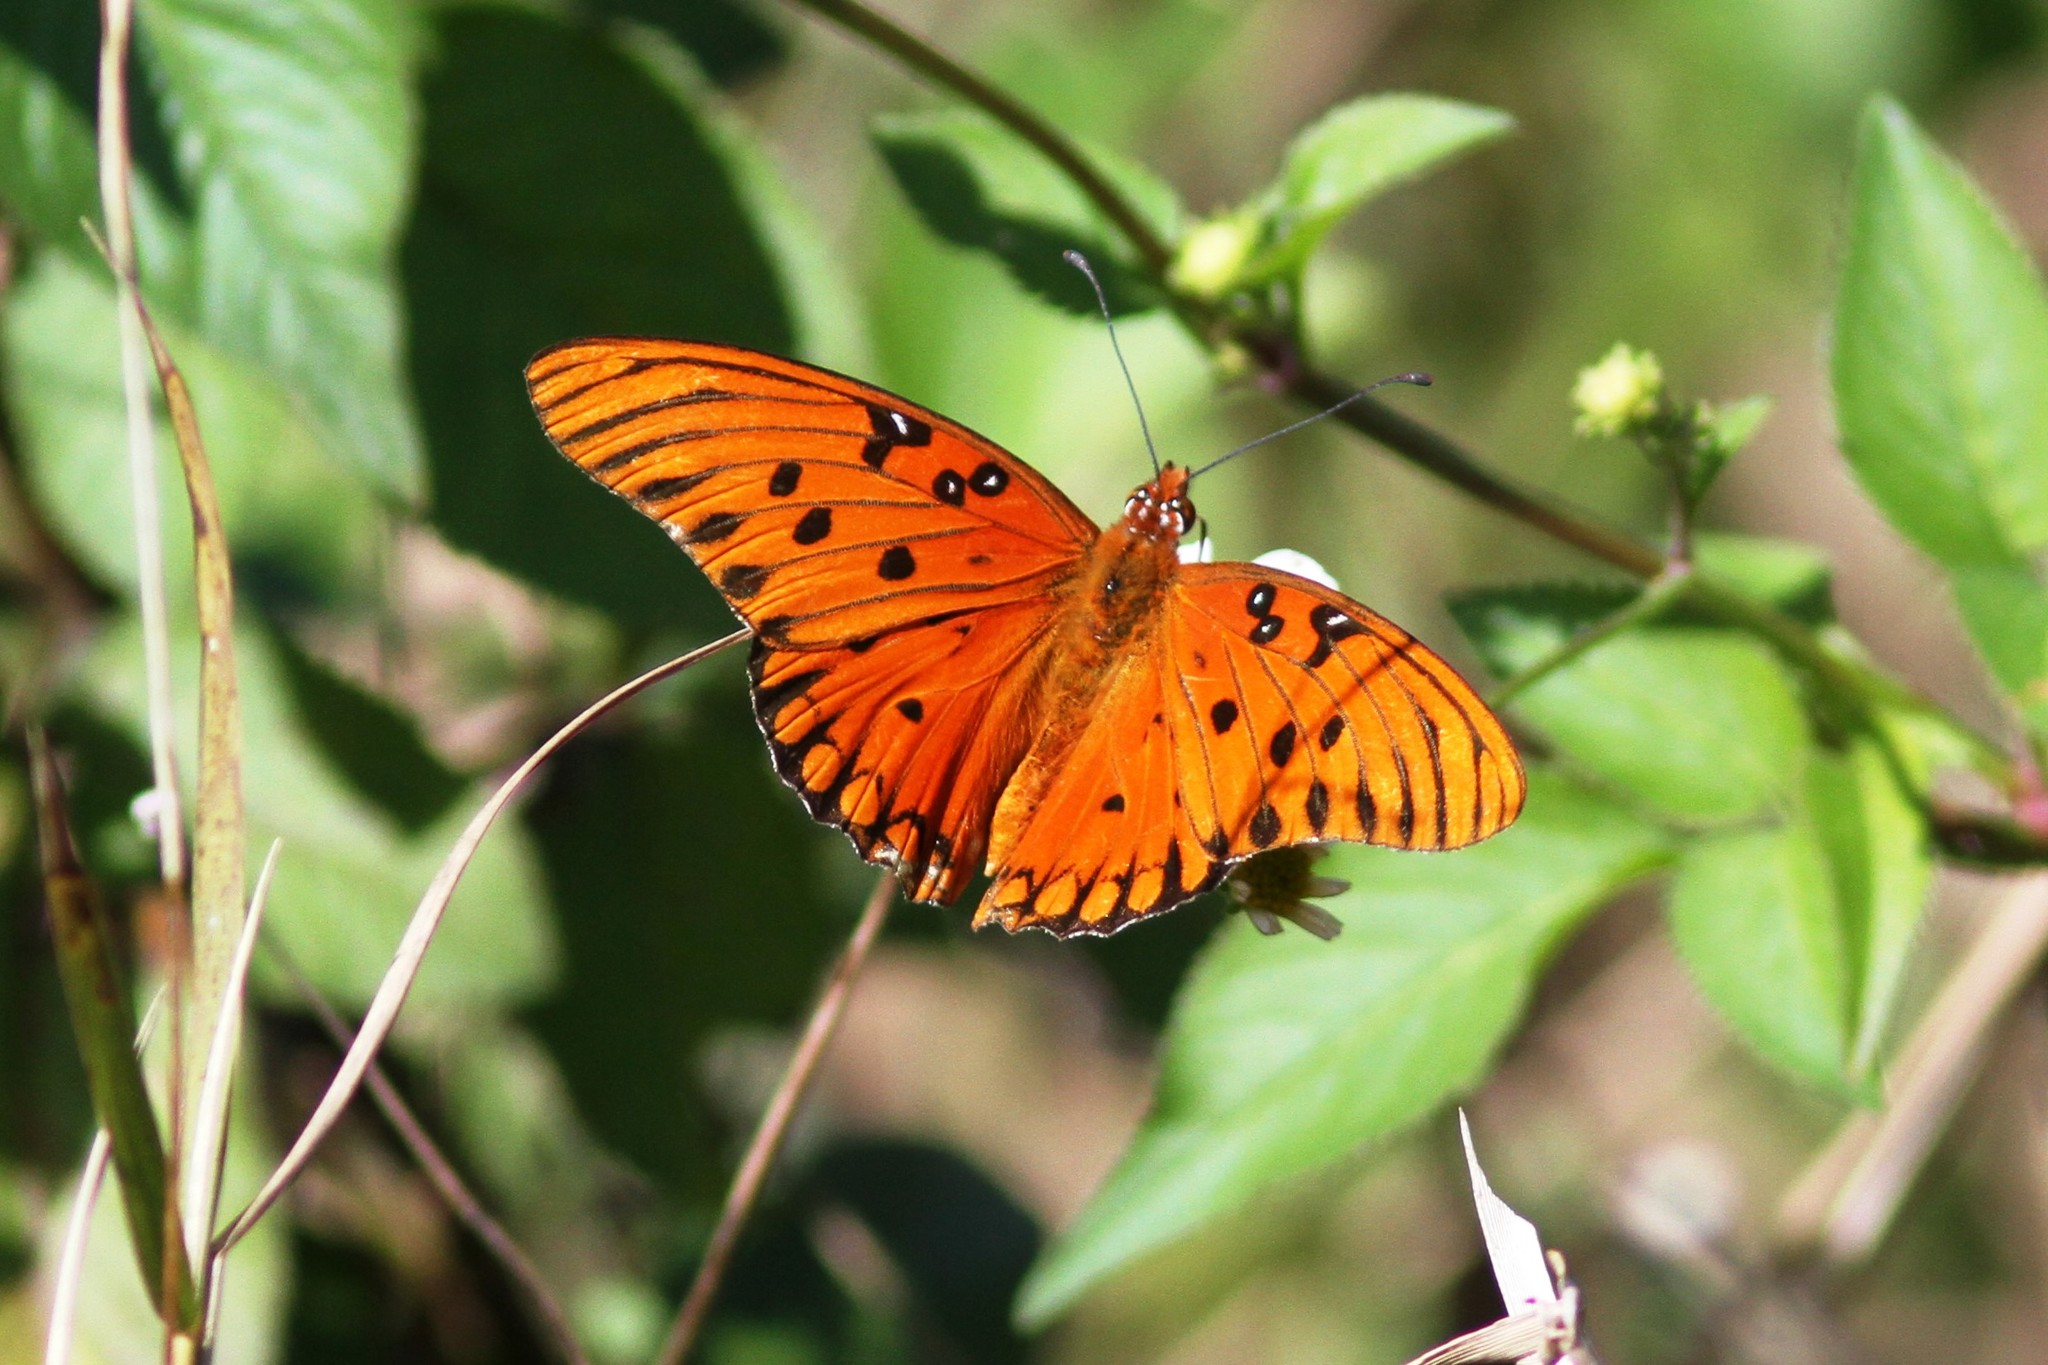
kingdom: Animalia
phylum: Arthropoda
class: Insecta
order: Lepidoptera
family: Nymphalidae
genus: Dione
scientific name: Dione vanillae
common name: Gulf fritillary
